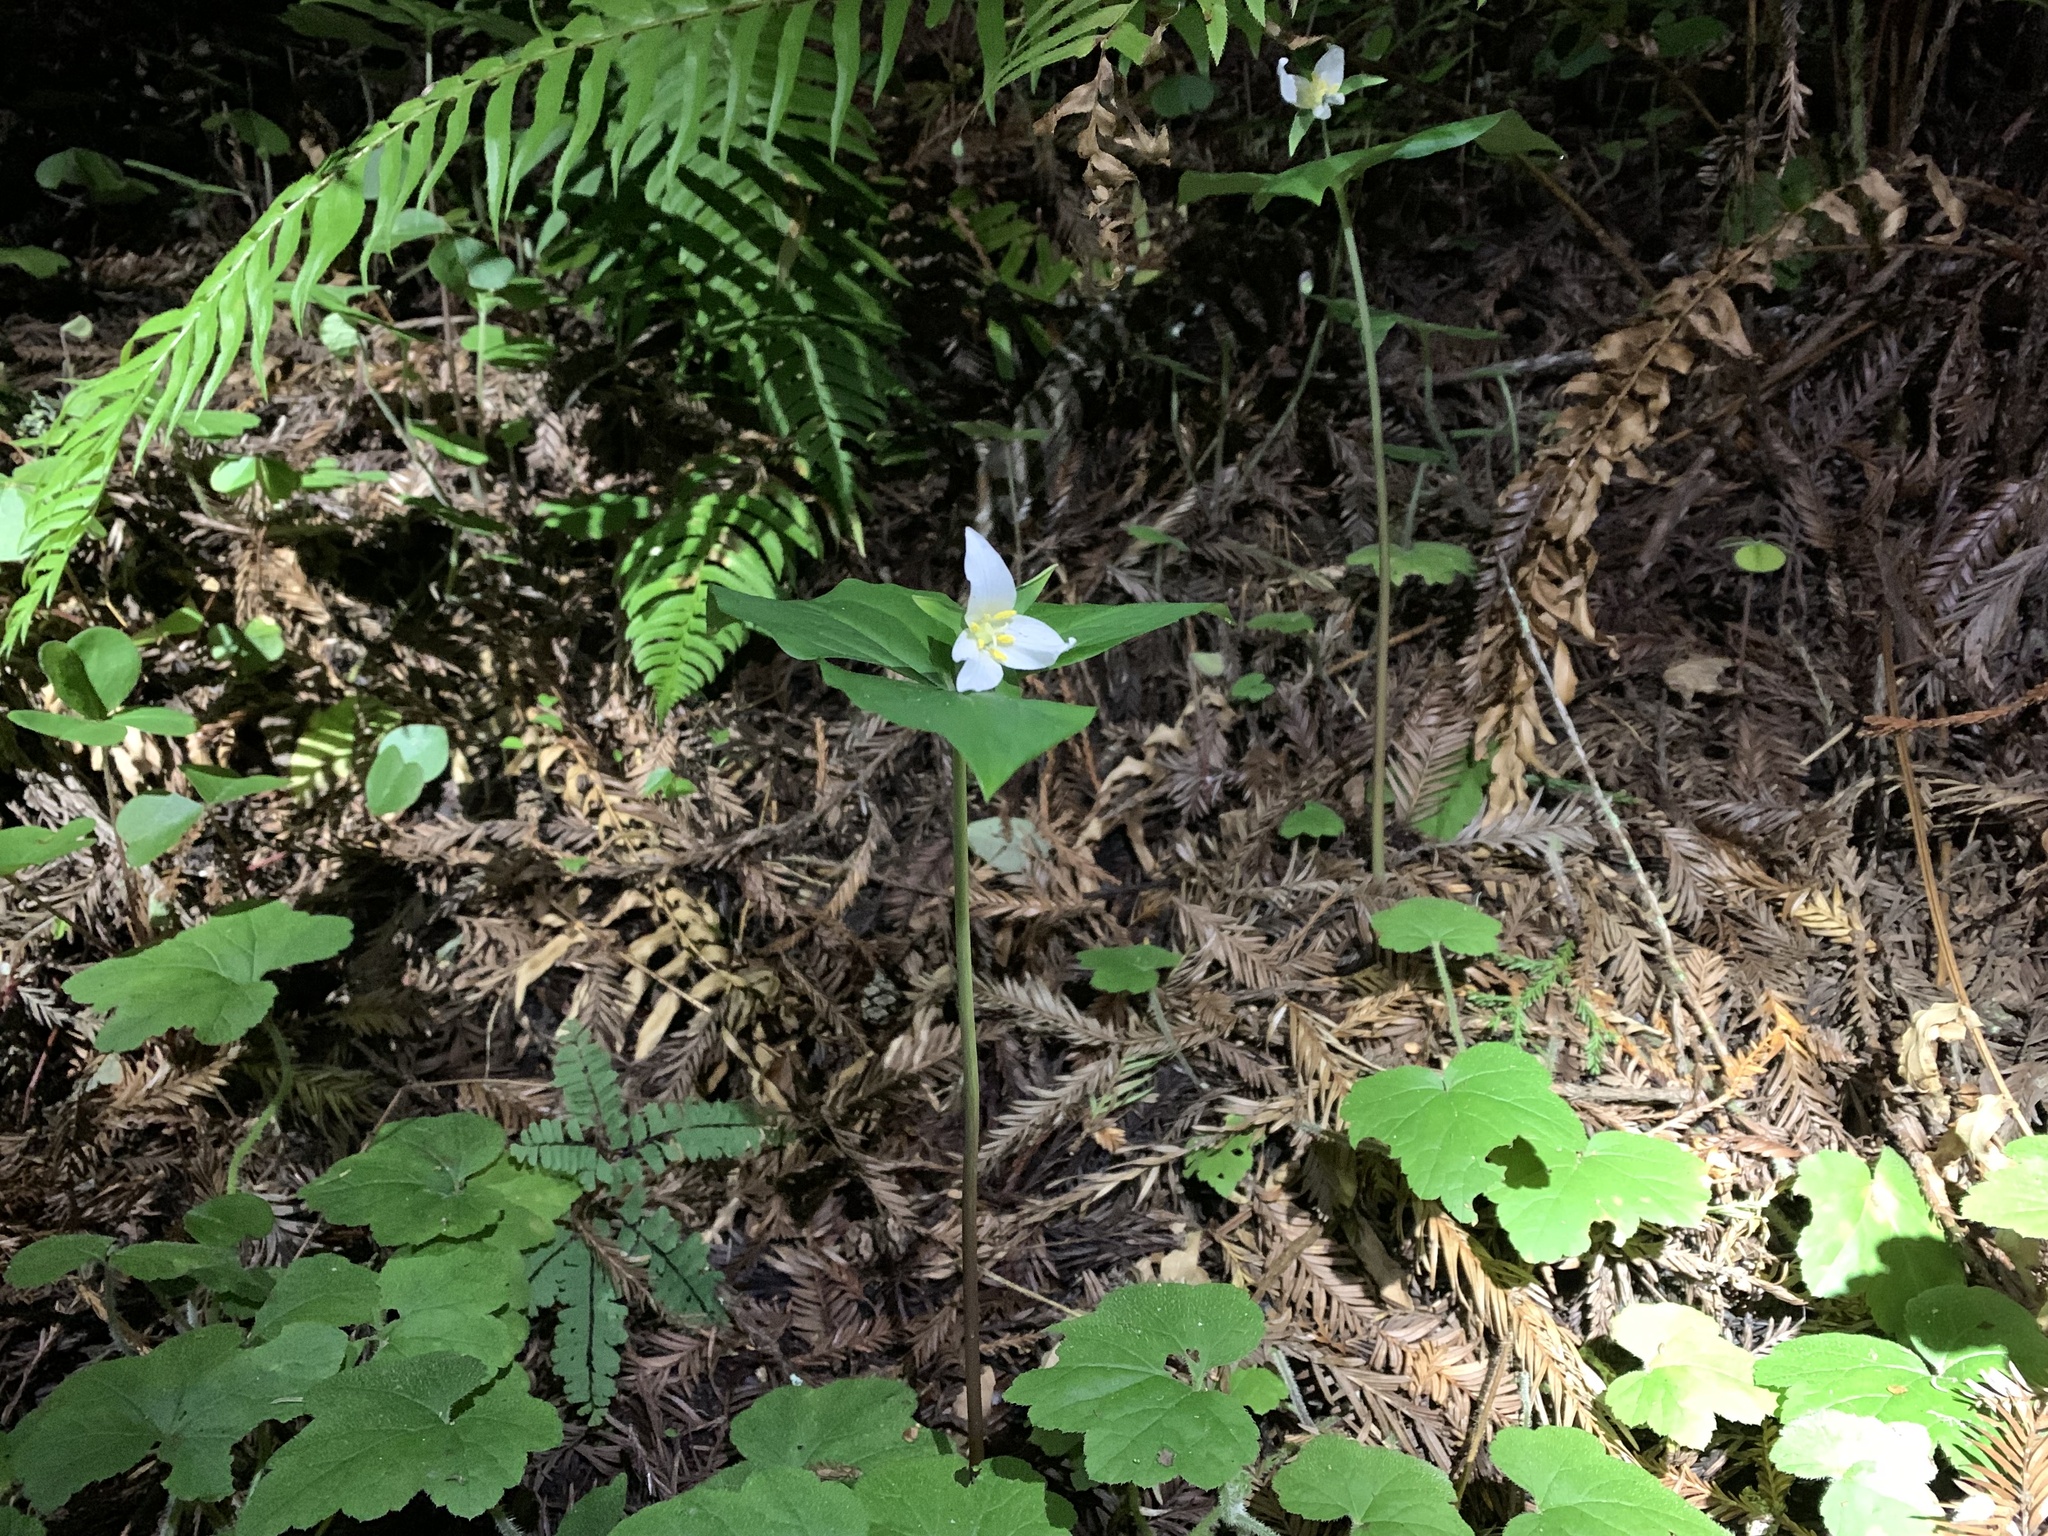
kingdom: Plantae
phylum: Tracheophyta
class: Liliopsida
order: Liliales
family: Melanthiaceae
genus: Trillium
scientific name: Trillium ovatum
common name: Pacific trillium
